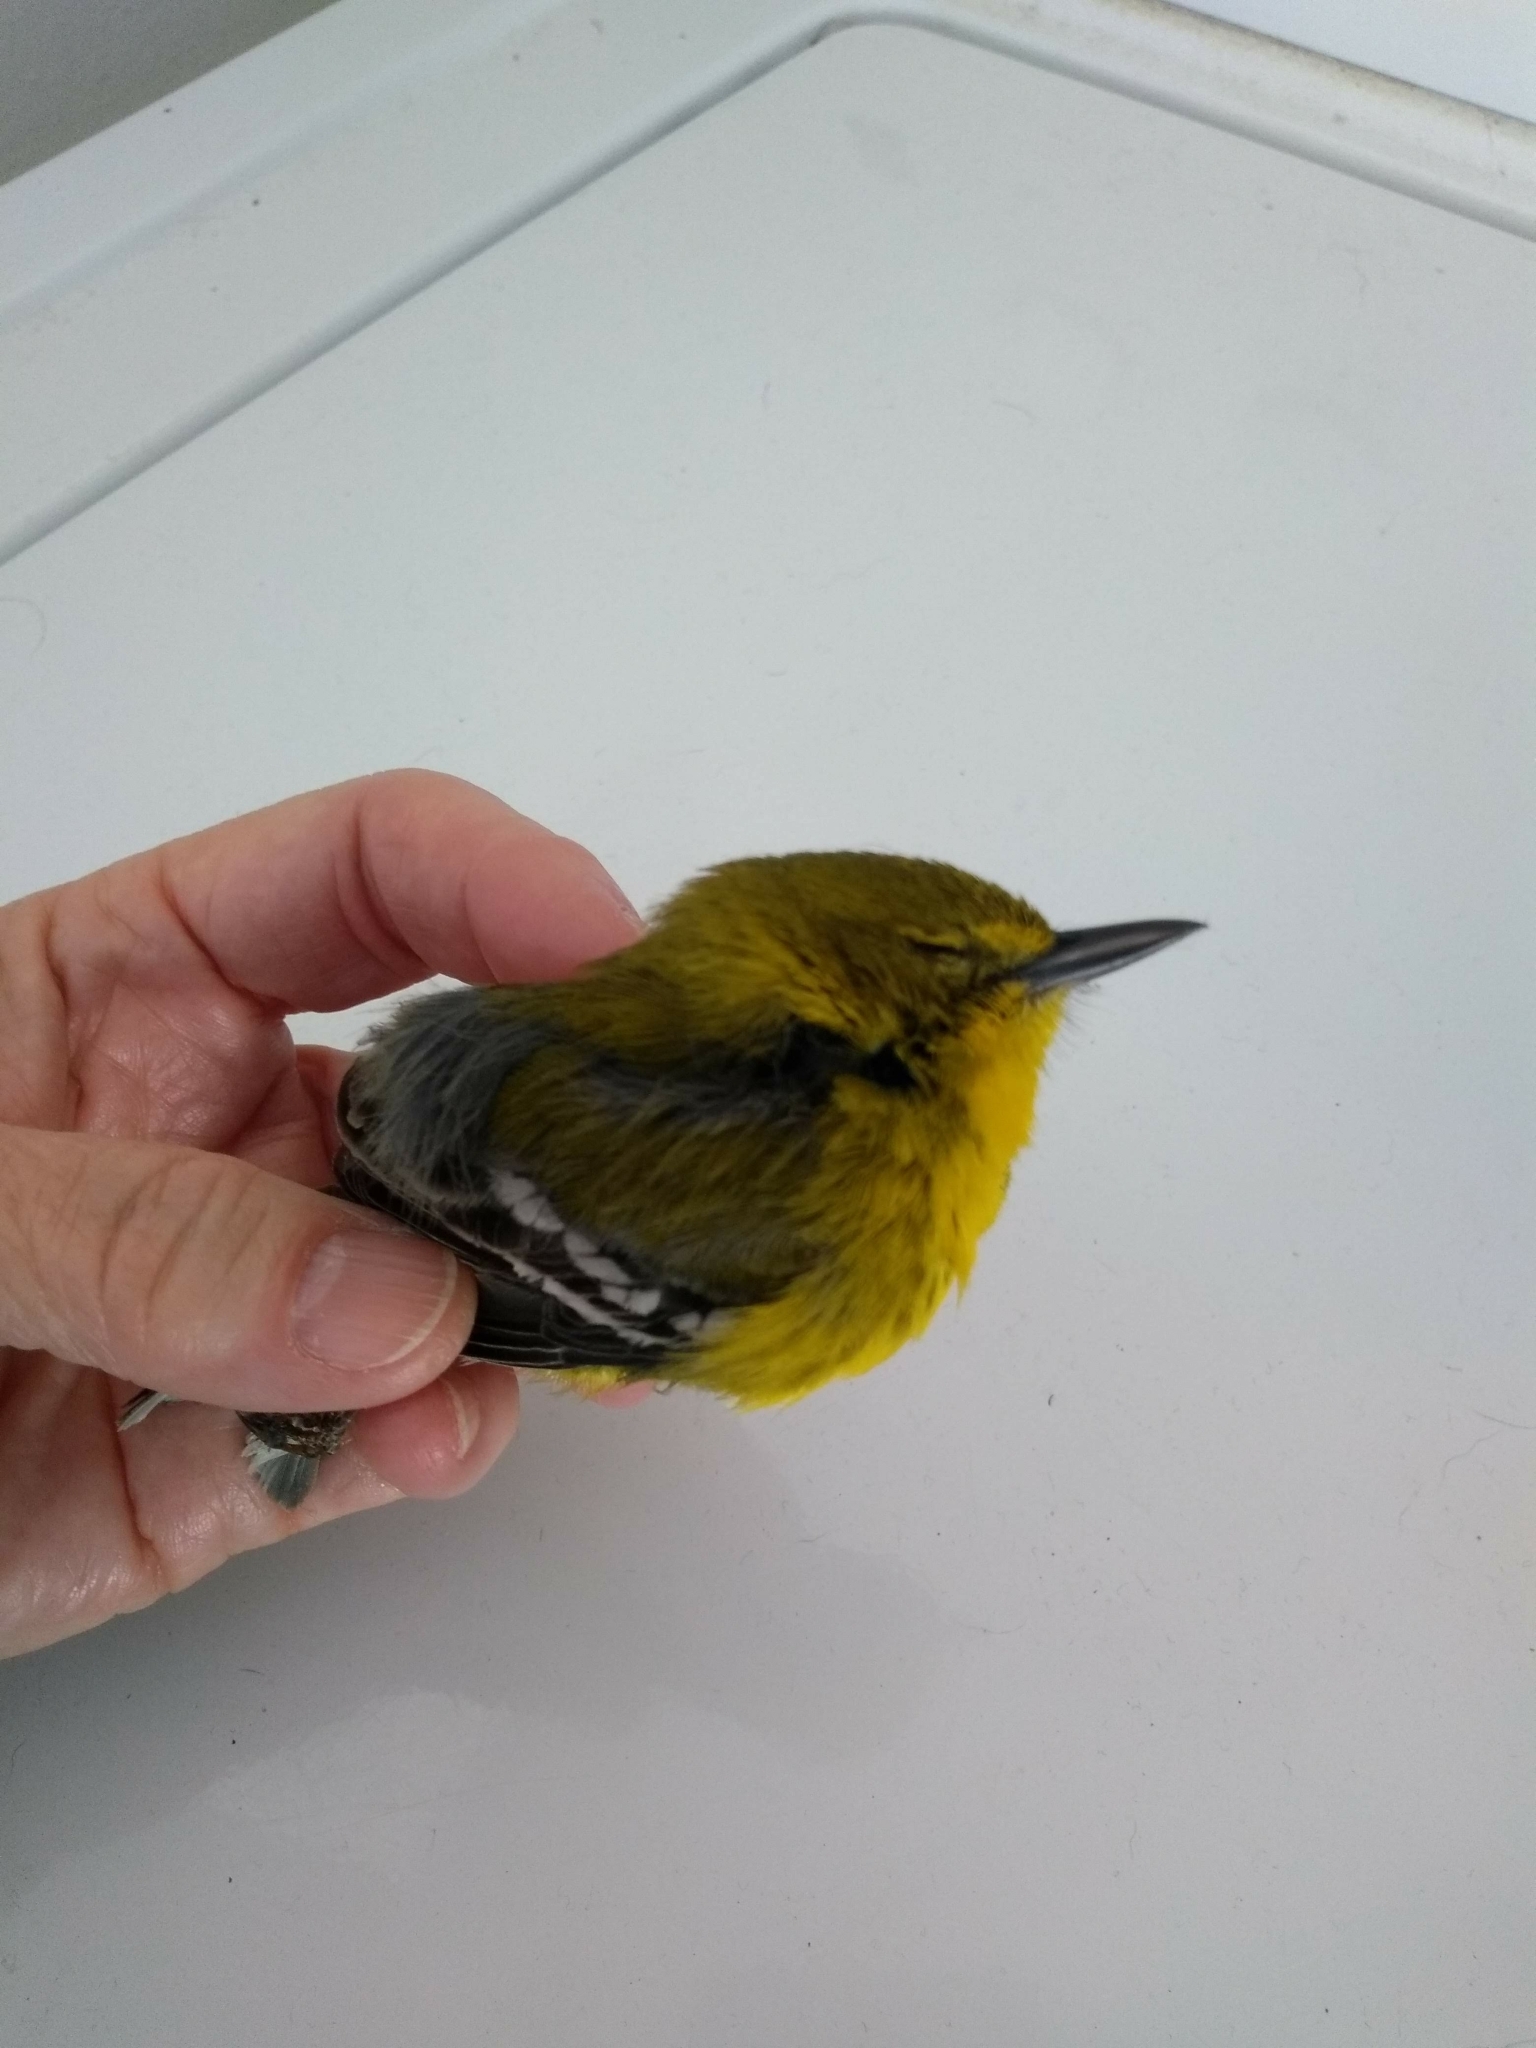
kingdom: Animalia
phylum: Chordata
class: Aves
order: Passeriformes
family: Parulidae
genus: Setophaga
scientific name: Setophaga pinus
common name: Pine warbler
